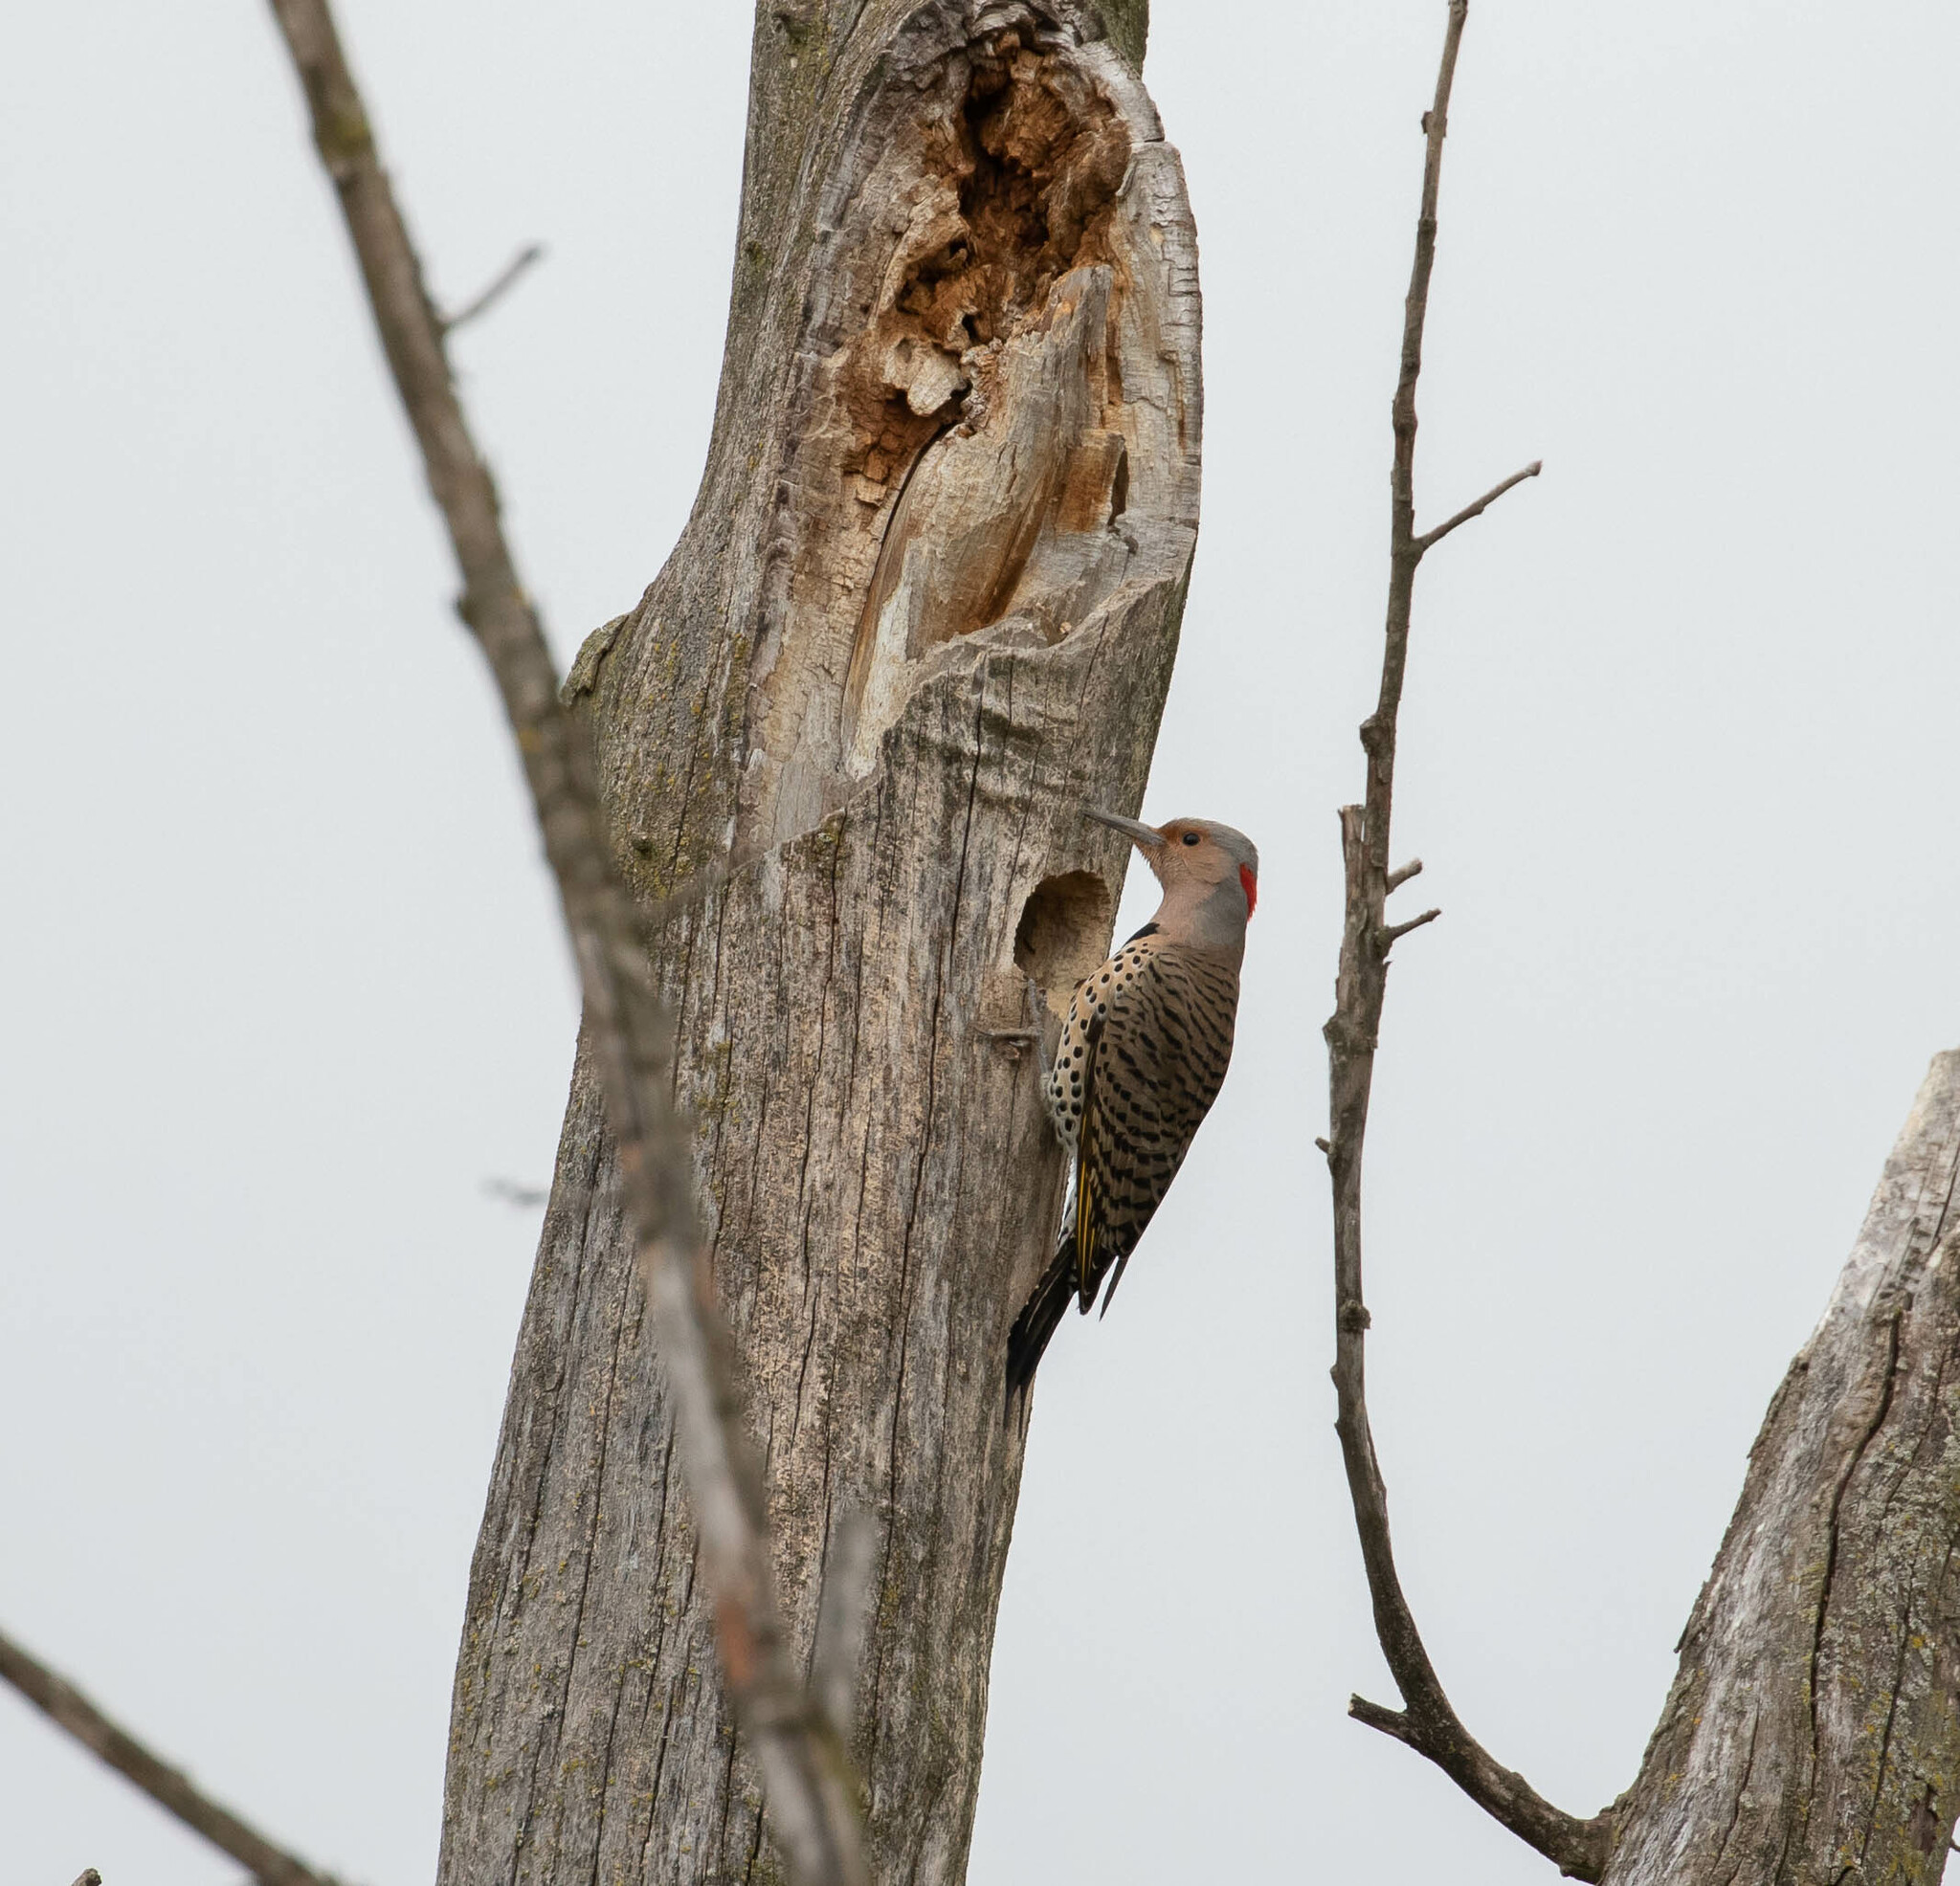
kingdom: Animalia
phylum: Chordata
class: Aves
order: Piciformes
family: Picidae
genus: Colaptes
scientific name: Colaptes auratus
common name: Northern flicker
